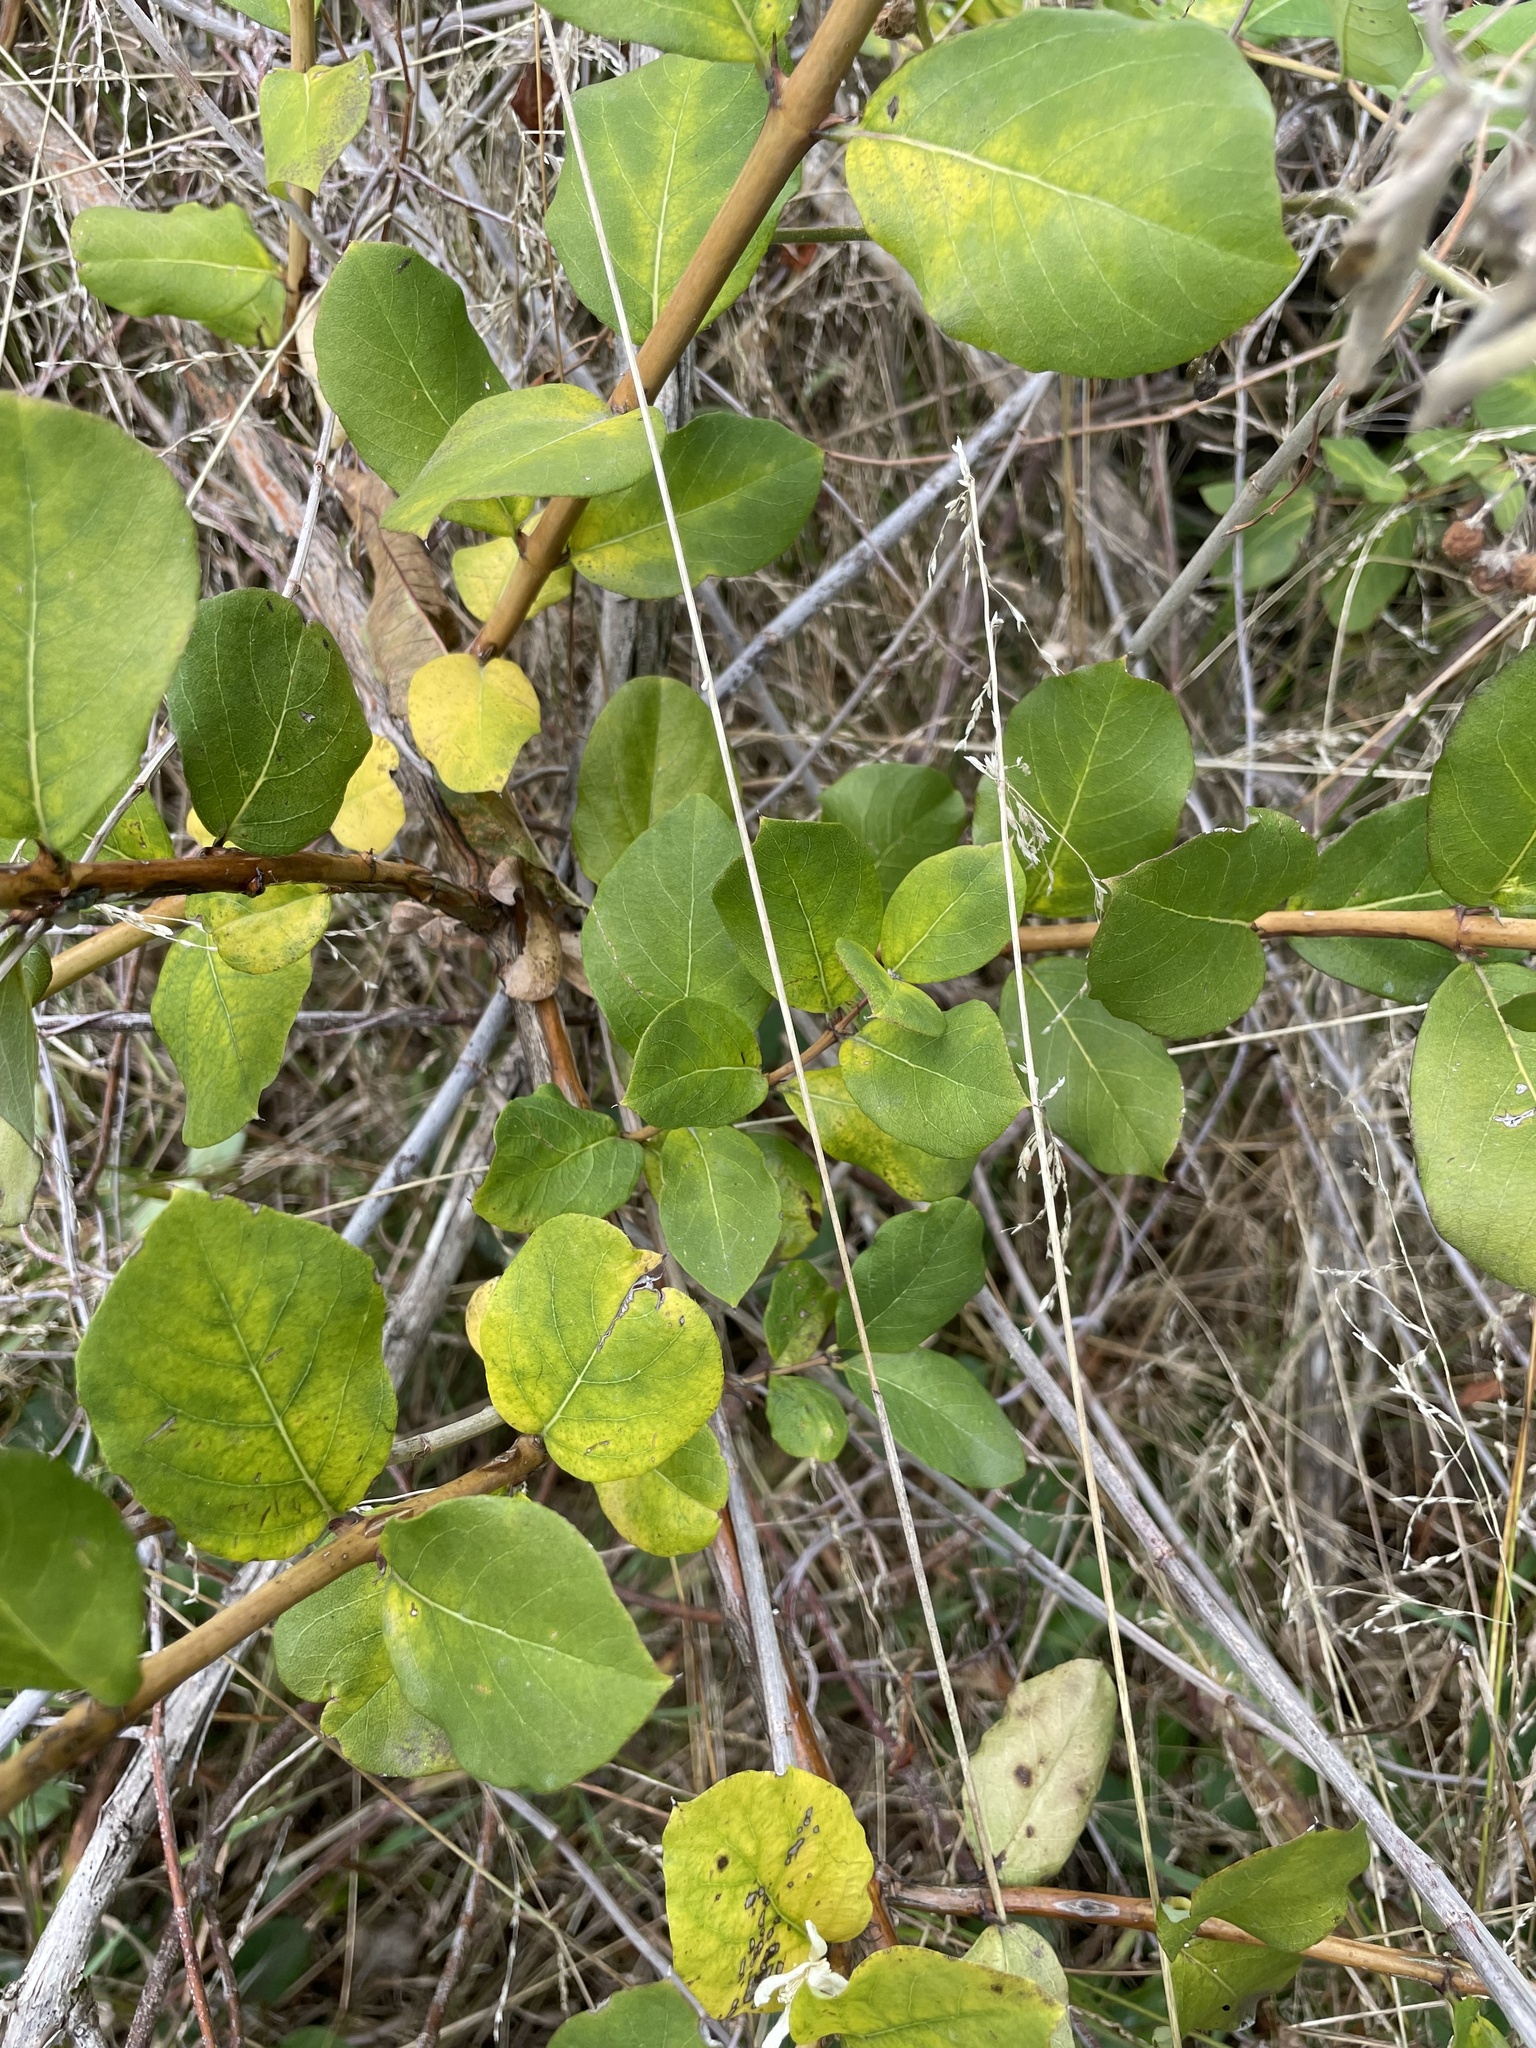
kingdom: Plantae
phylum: Tracheophyta
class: Magnoliopsida
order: Dipsacales
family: Caprifoliaceae
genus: Lonicera
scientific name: Lonicera japonica
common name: Japanese honeysuckle
